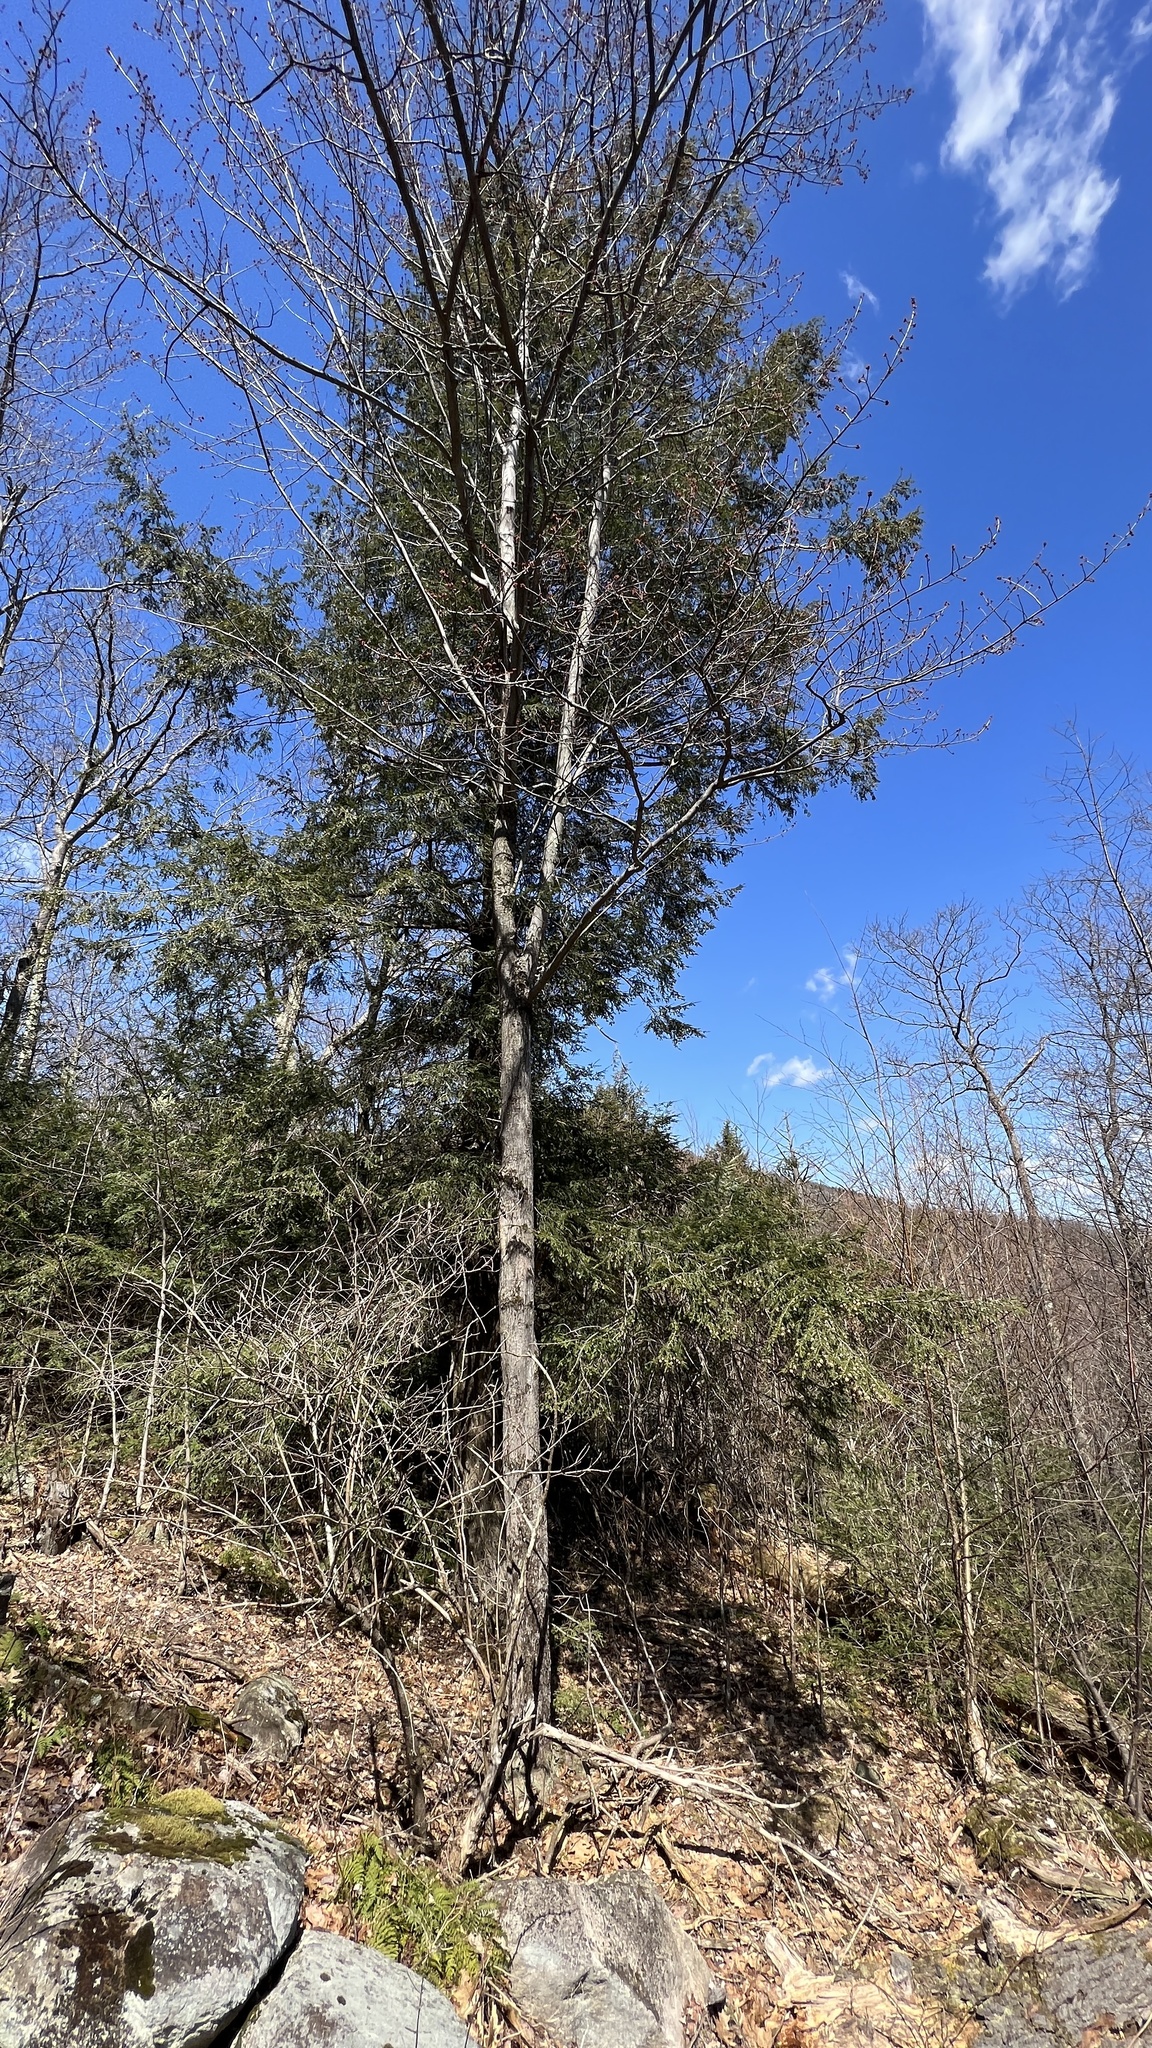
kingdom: Plantae
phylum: Tracheophyta
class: Pinopsida
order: Pinales
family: Pinaceae
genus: Tsuga
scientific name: Tsuga canadensis
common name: Eastern hemlock
